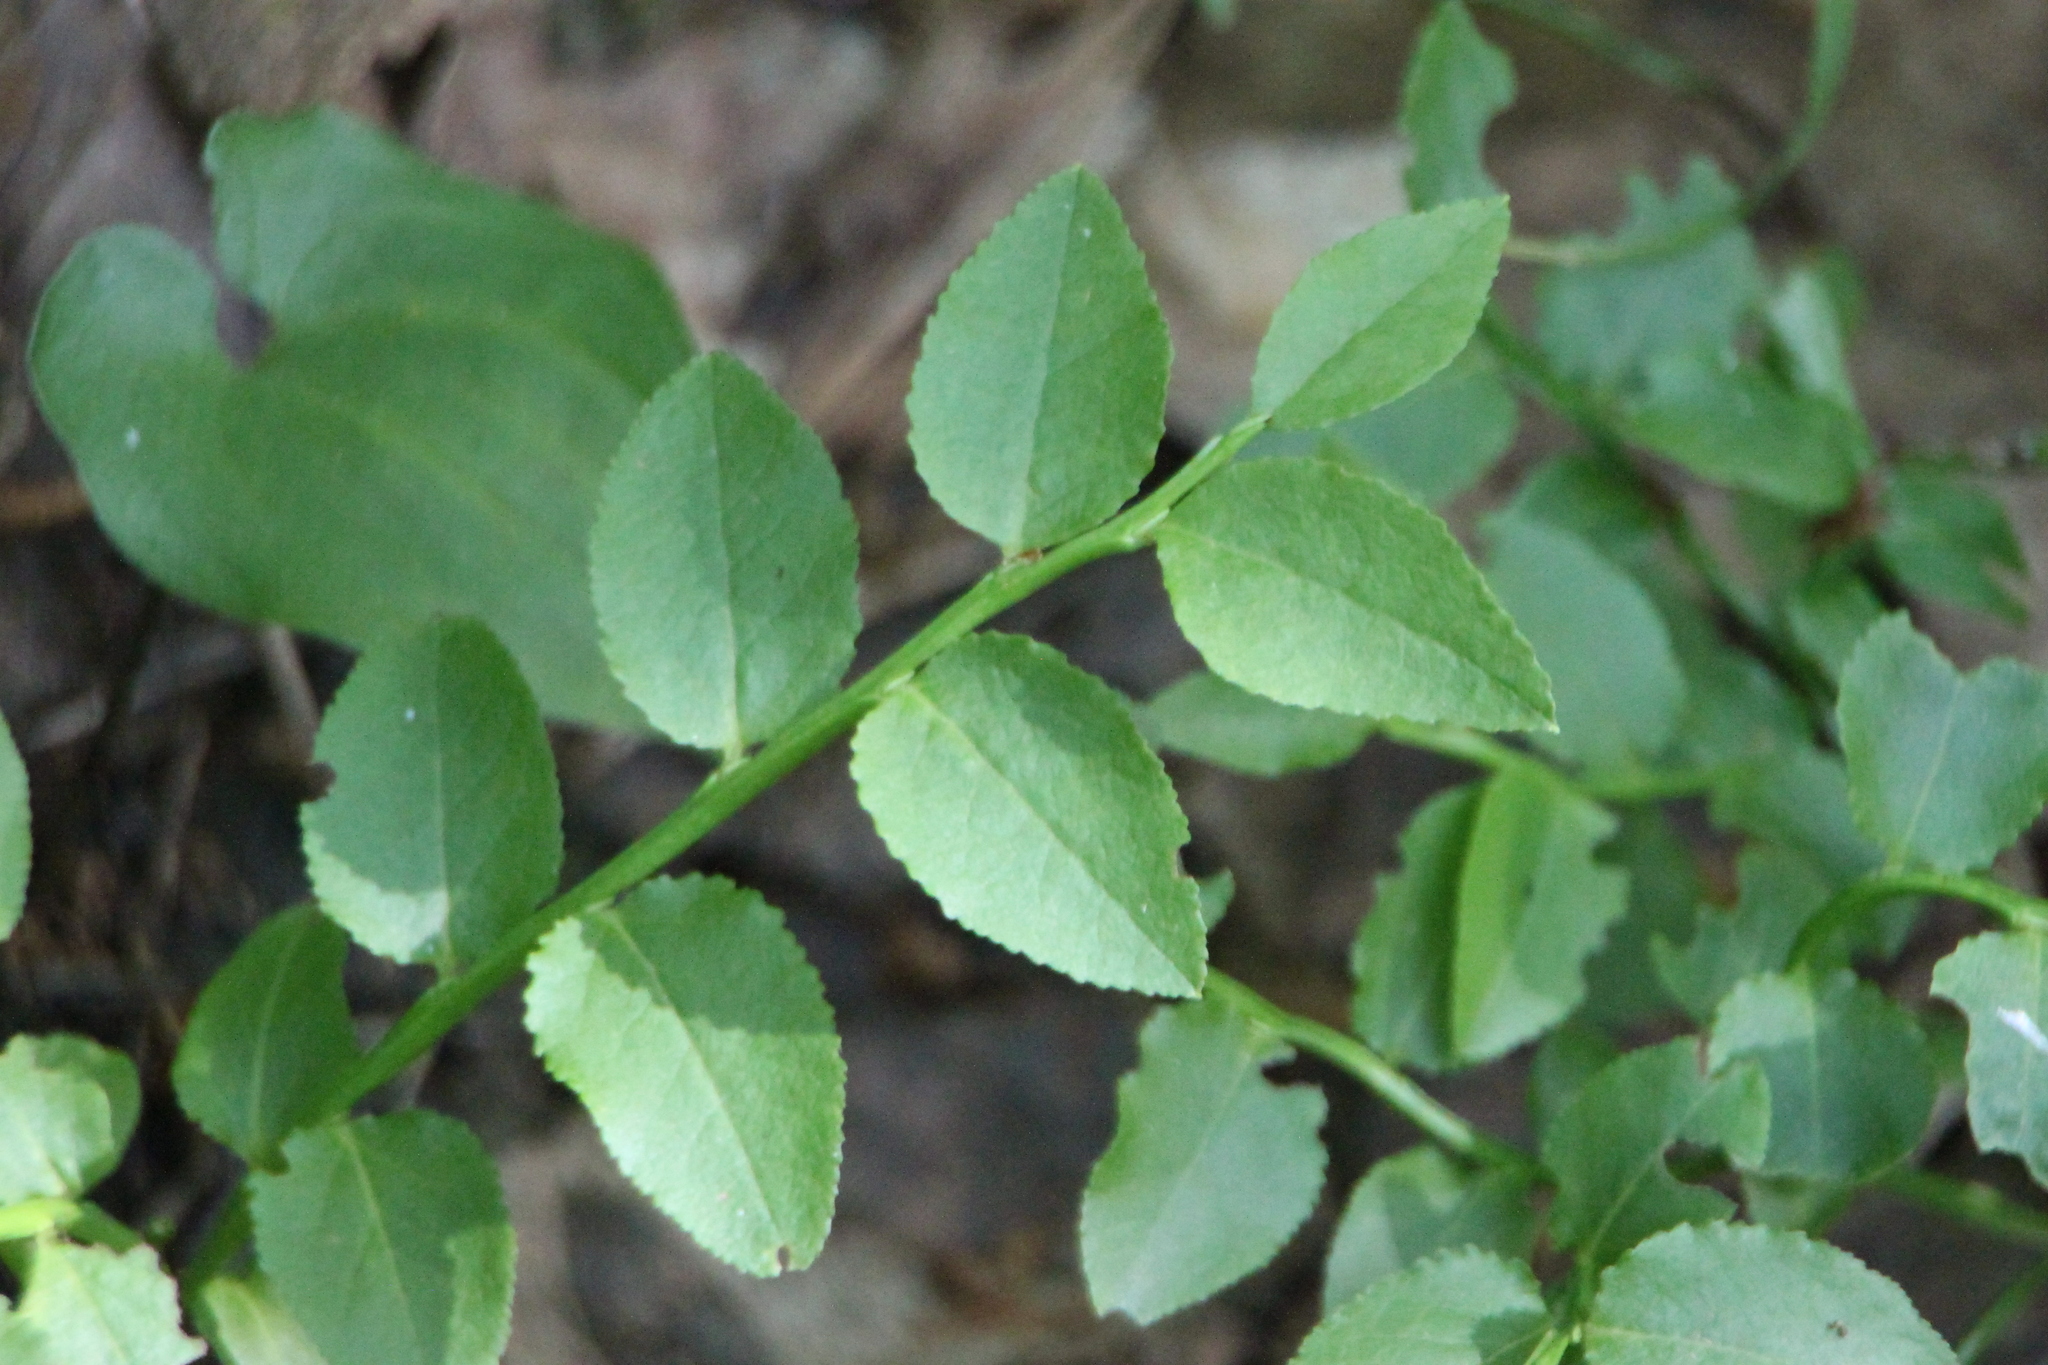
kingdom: Plantae
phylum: Tracheophyta
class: Magnoliopsida
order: Ericales
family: Ericaceae
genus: Vaccinium
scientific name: Vaccinium myrtillus
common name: Bilberry
